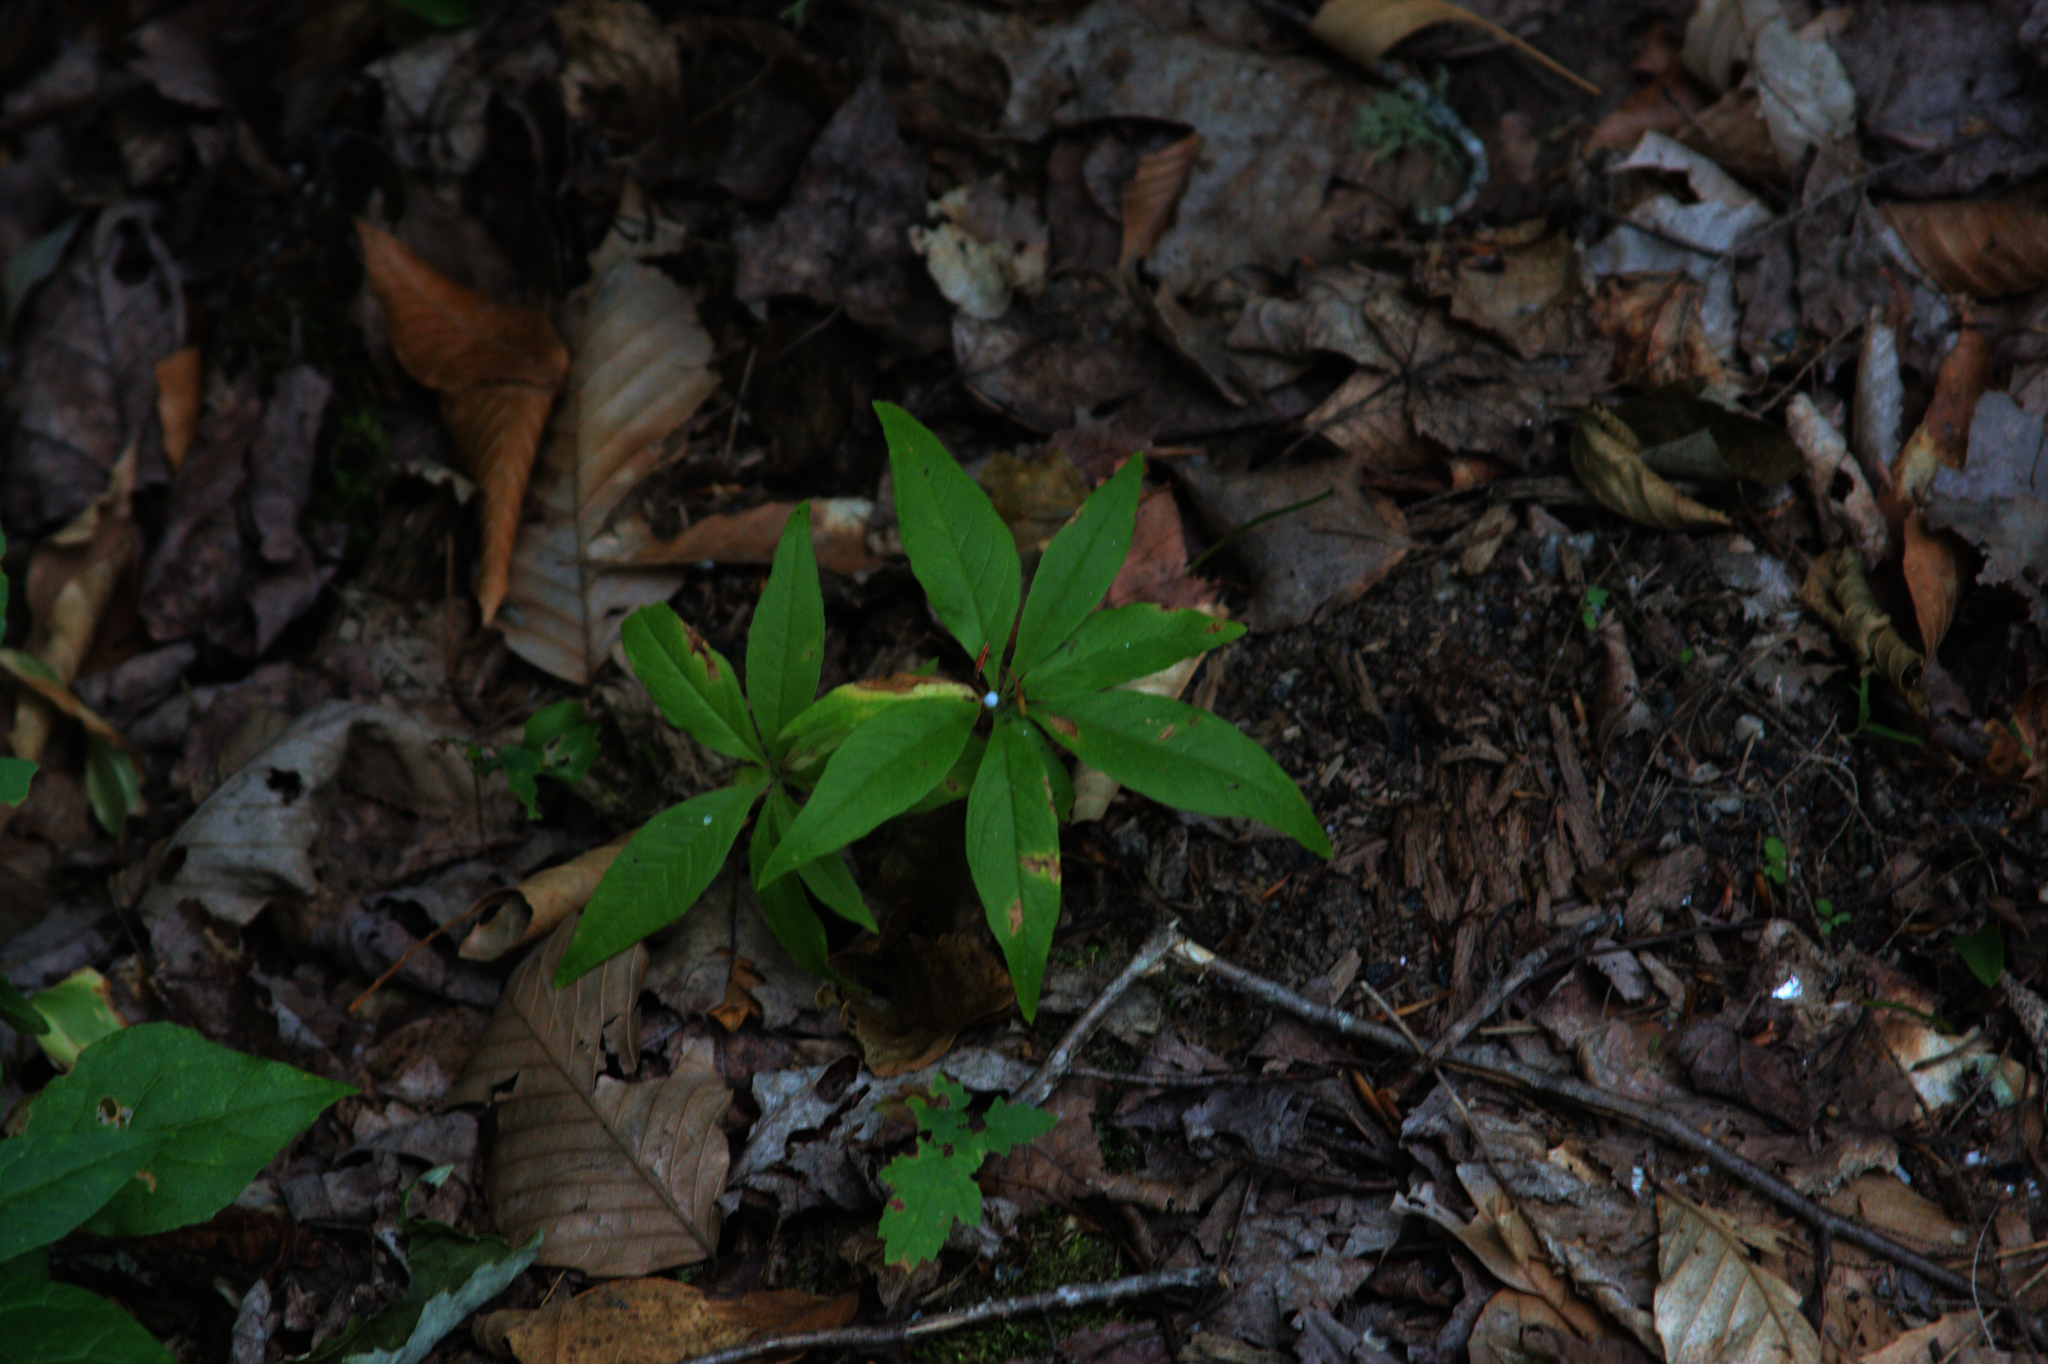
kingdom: Plantae
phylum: Tracheophyta
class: Magnoliopsida
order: Ericales
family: Primulaceae
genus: Lysimachia
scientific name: Lysimachia borealis
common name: American starflower
